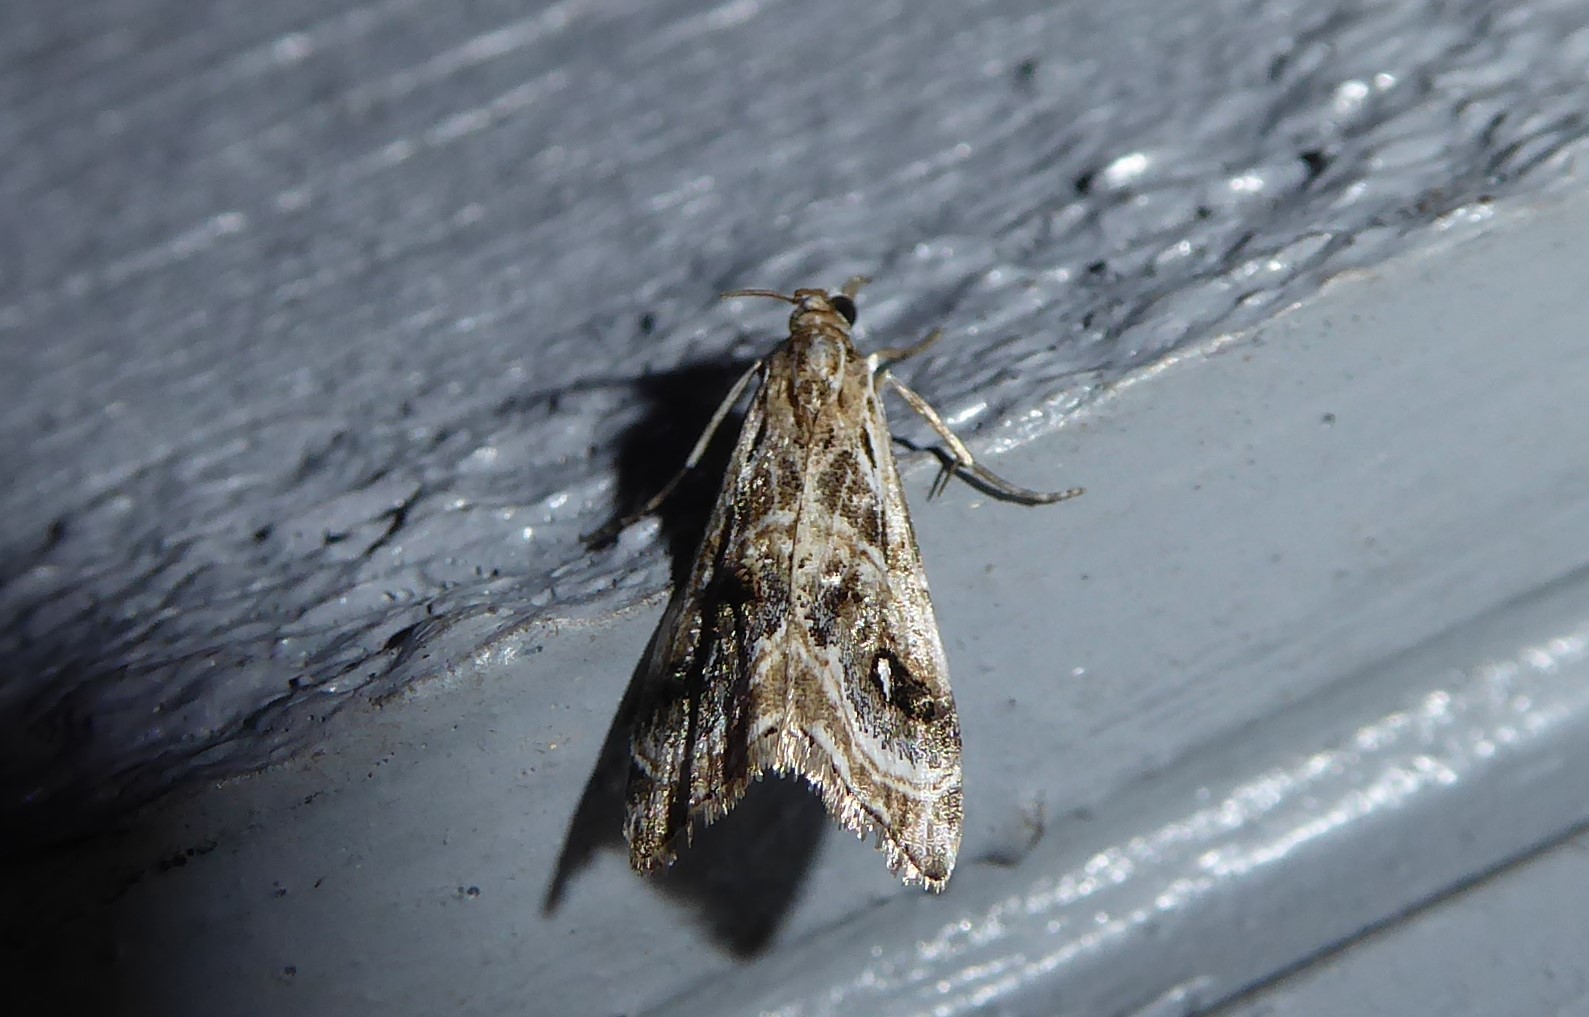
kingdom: Animalia
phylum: Arthropoda
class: Insecta
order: Lepidoptera
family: Crambidae
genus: Gadira
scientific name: Gadira acerella
